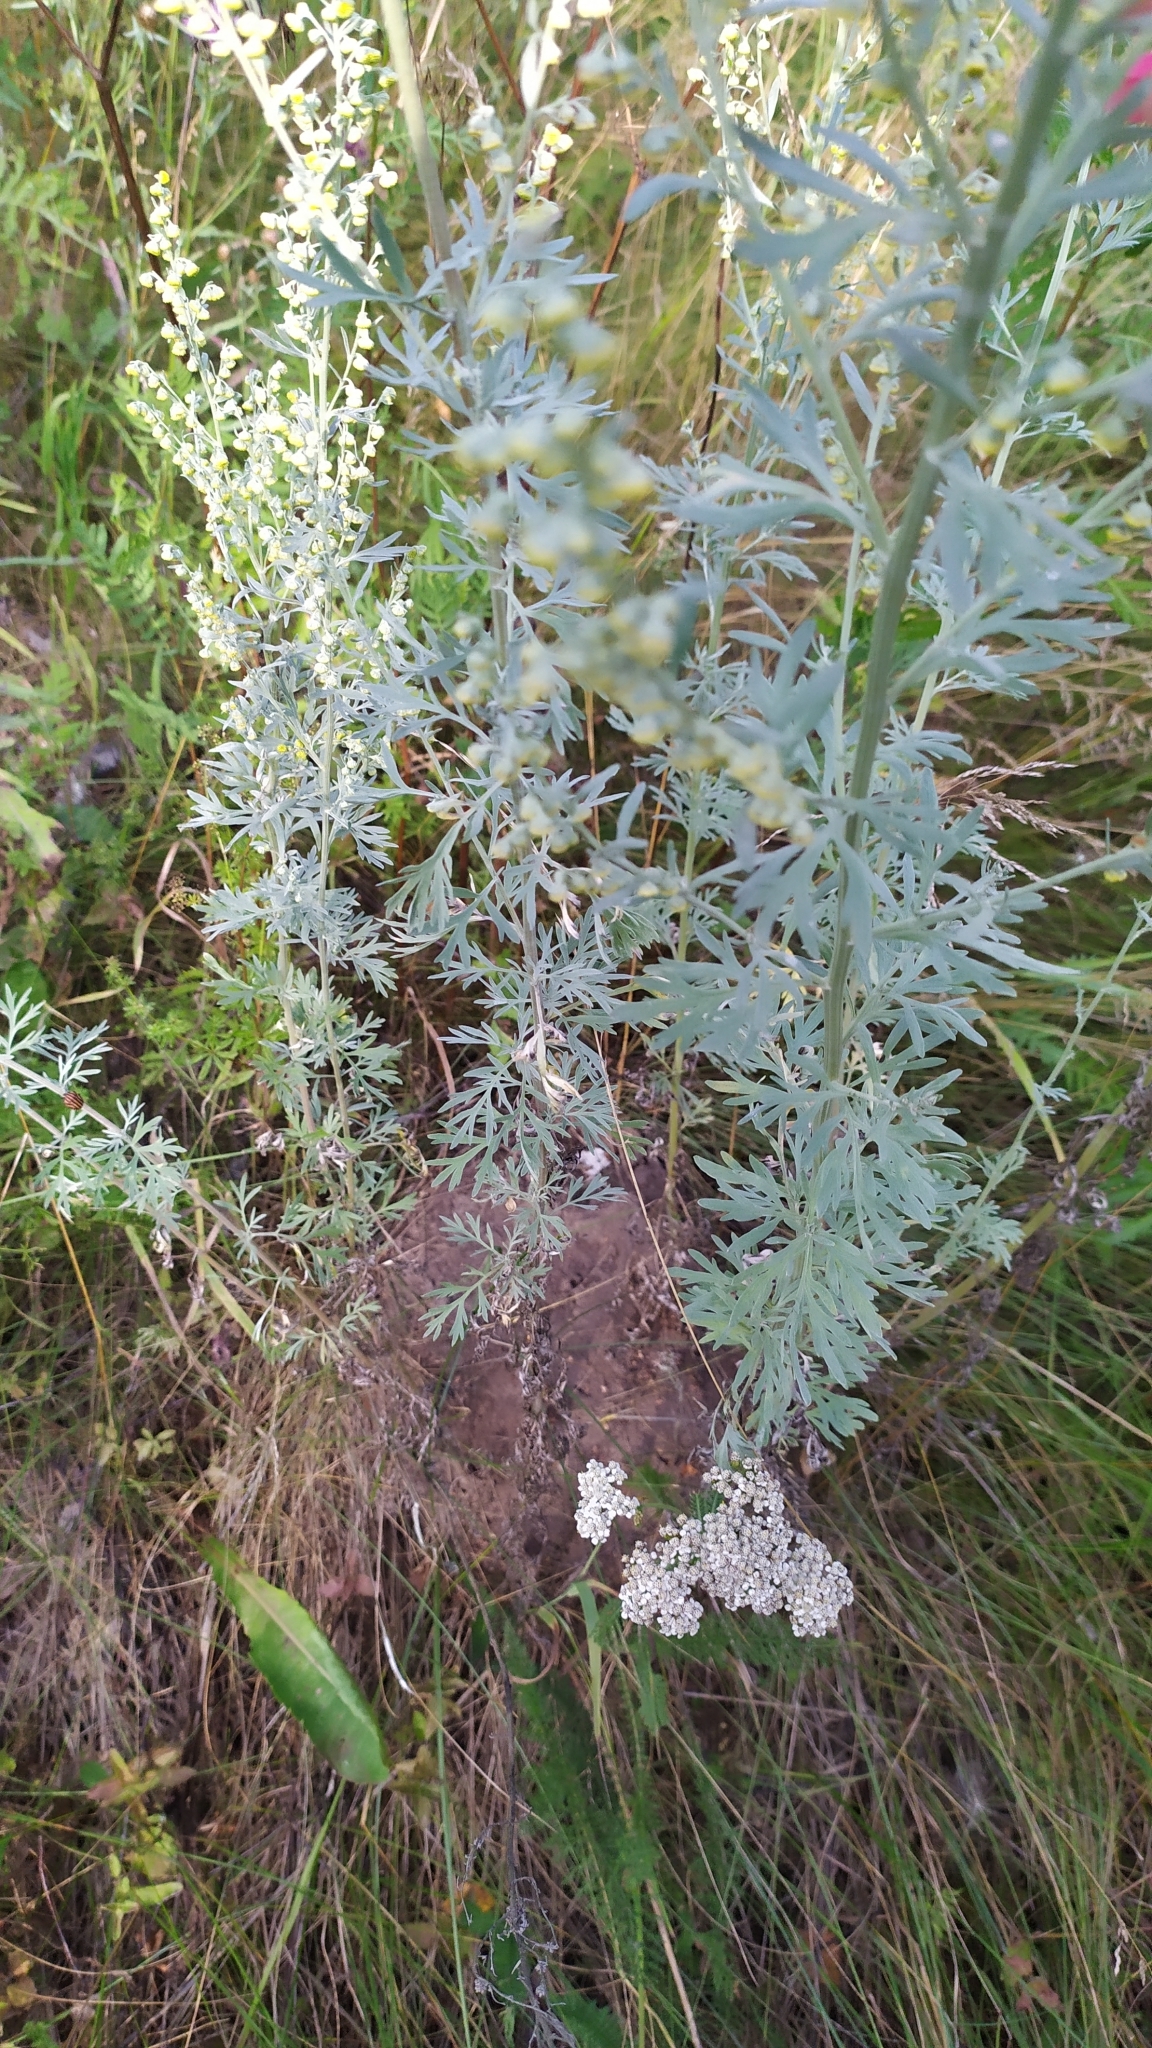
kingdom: Plantae
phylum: Tracheophyta
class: Magnoliopsida
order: Asterales
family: Asteraceae
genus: Artemisia
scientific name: Artemisia absinthium
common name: Wormwood
